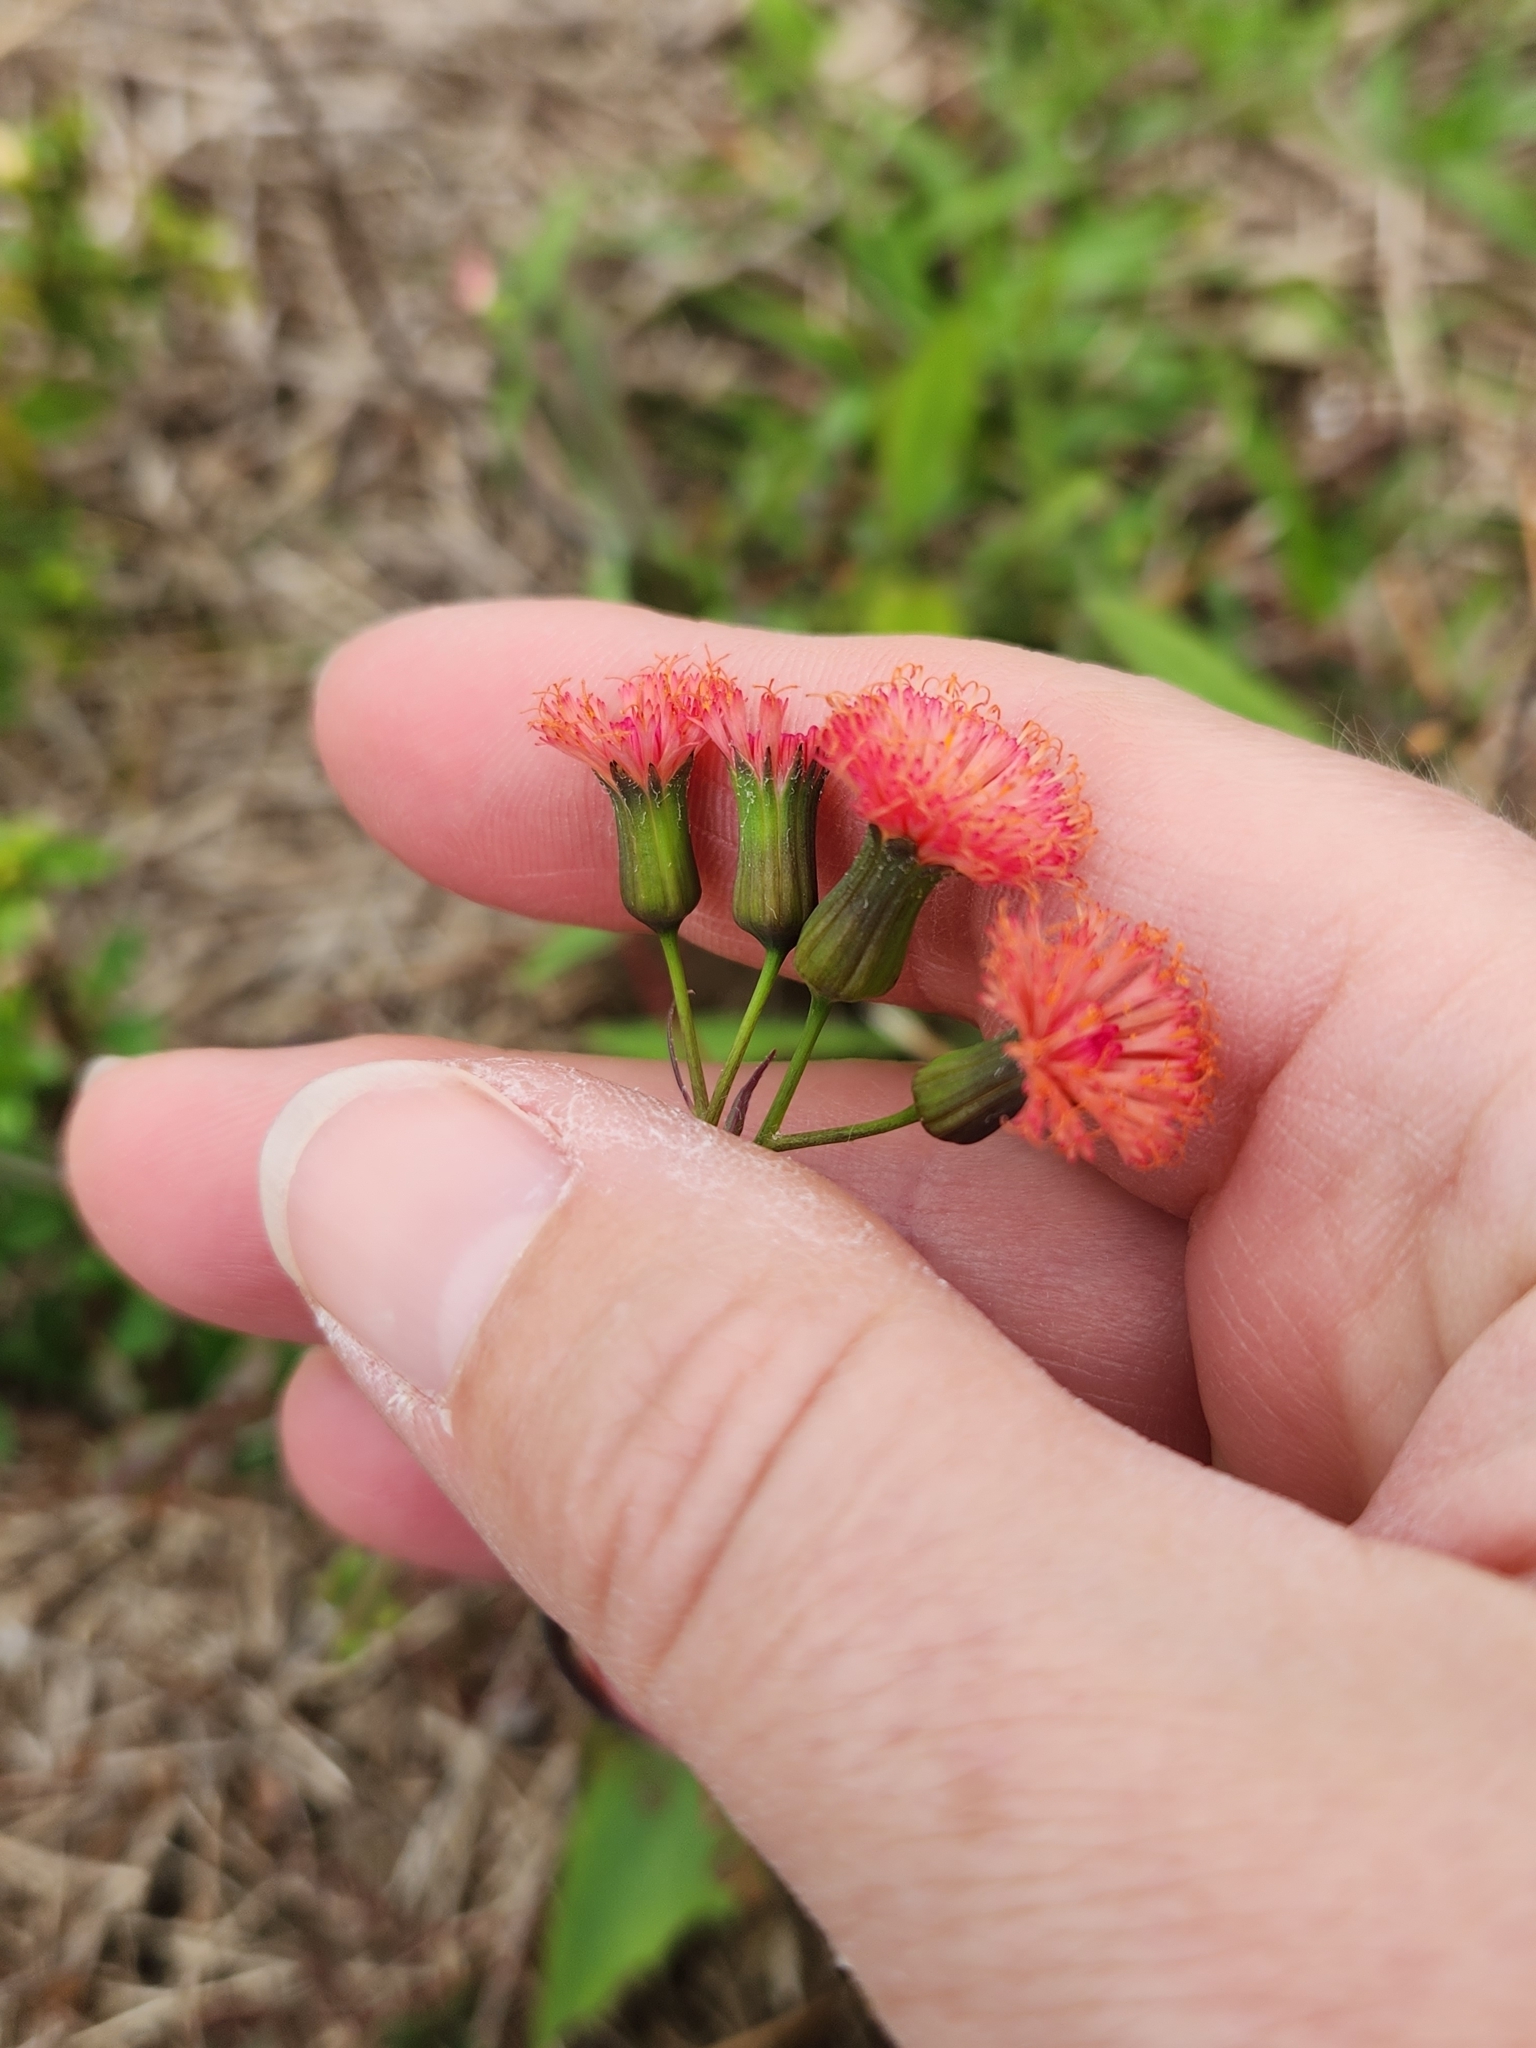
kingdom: Plantae
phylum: Tracheophyta
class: Magnoliopsida
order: Asterales
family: Asteraceae
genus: Emilia
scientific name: Emilia fosbergii
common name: Florida tasselflower
